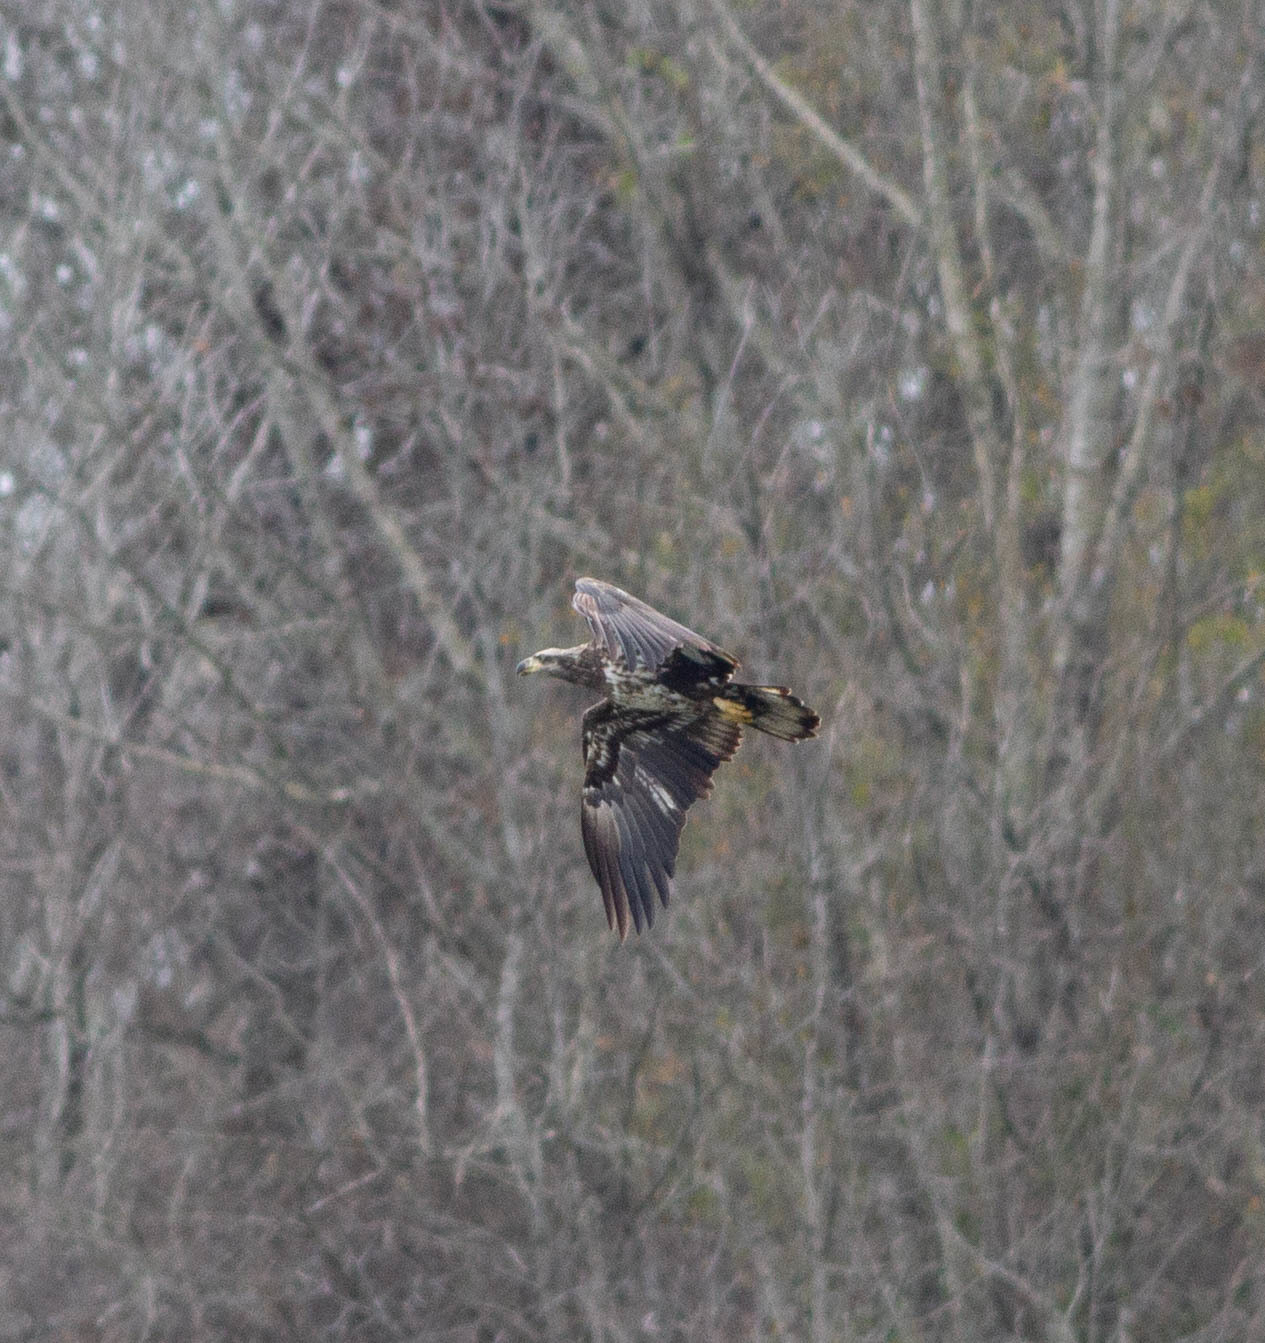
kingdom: Animalia
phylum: Chordata
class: Aves
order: Accipitriformes
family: Accipitridae
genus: Haliaeetus
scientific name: Haliaeetus leucocephalus
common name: Bald eagle
